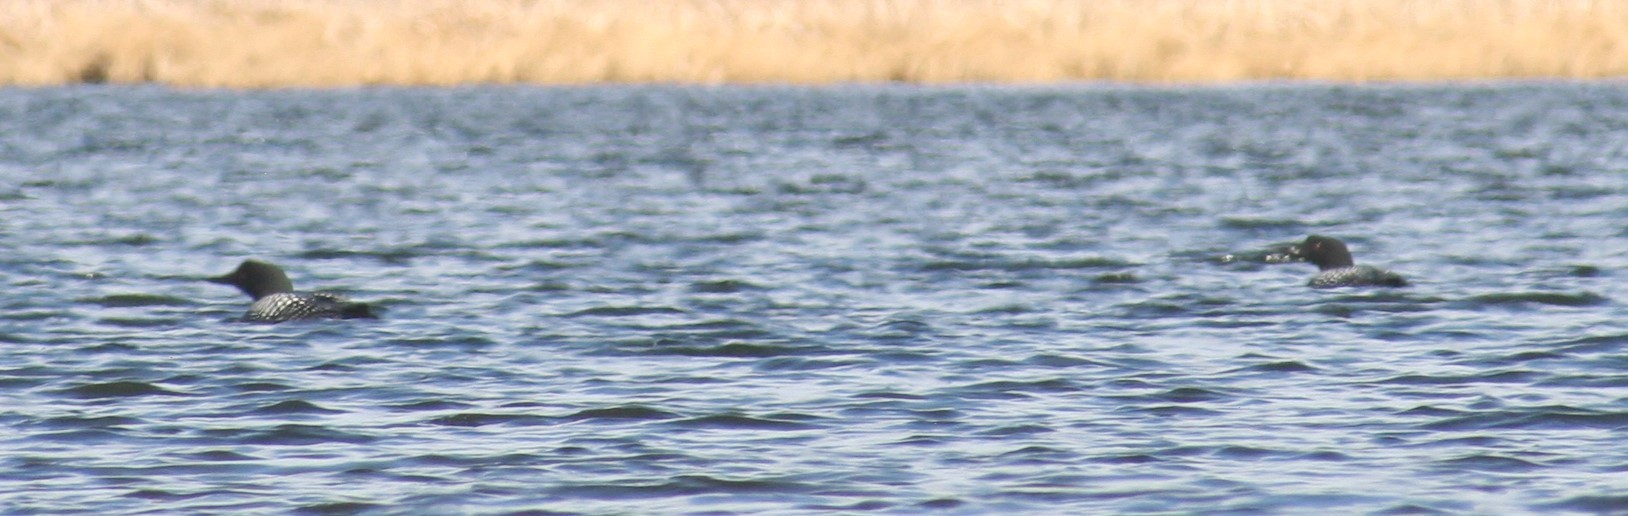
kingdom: Animalia
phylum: Chordata
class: Aves
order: Gaviiformes
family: Gaviidae
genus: Gavia
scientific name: Gavia immer
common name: Common loon
